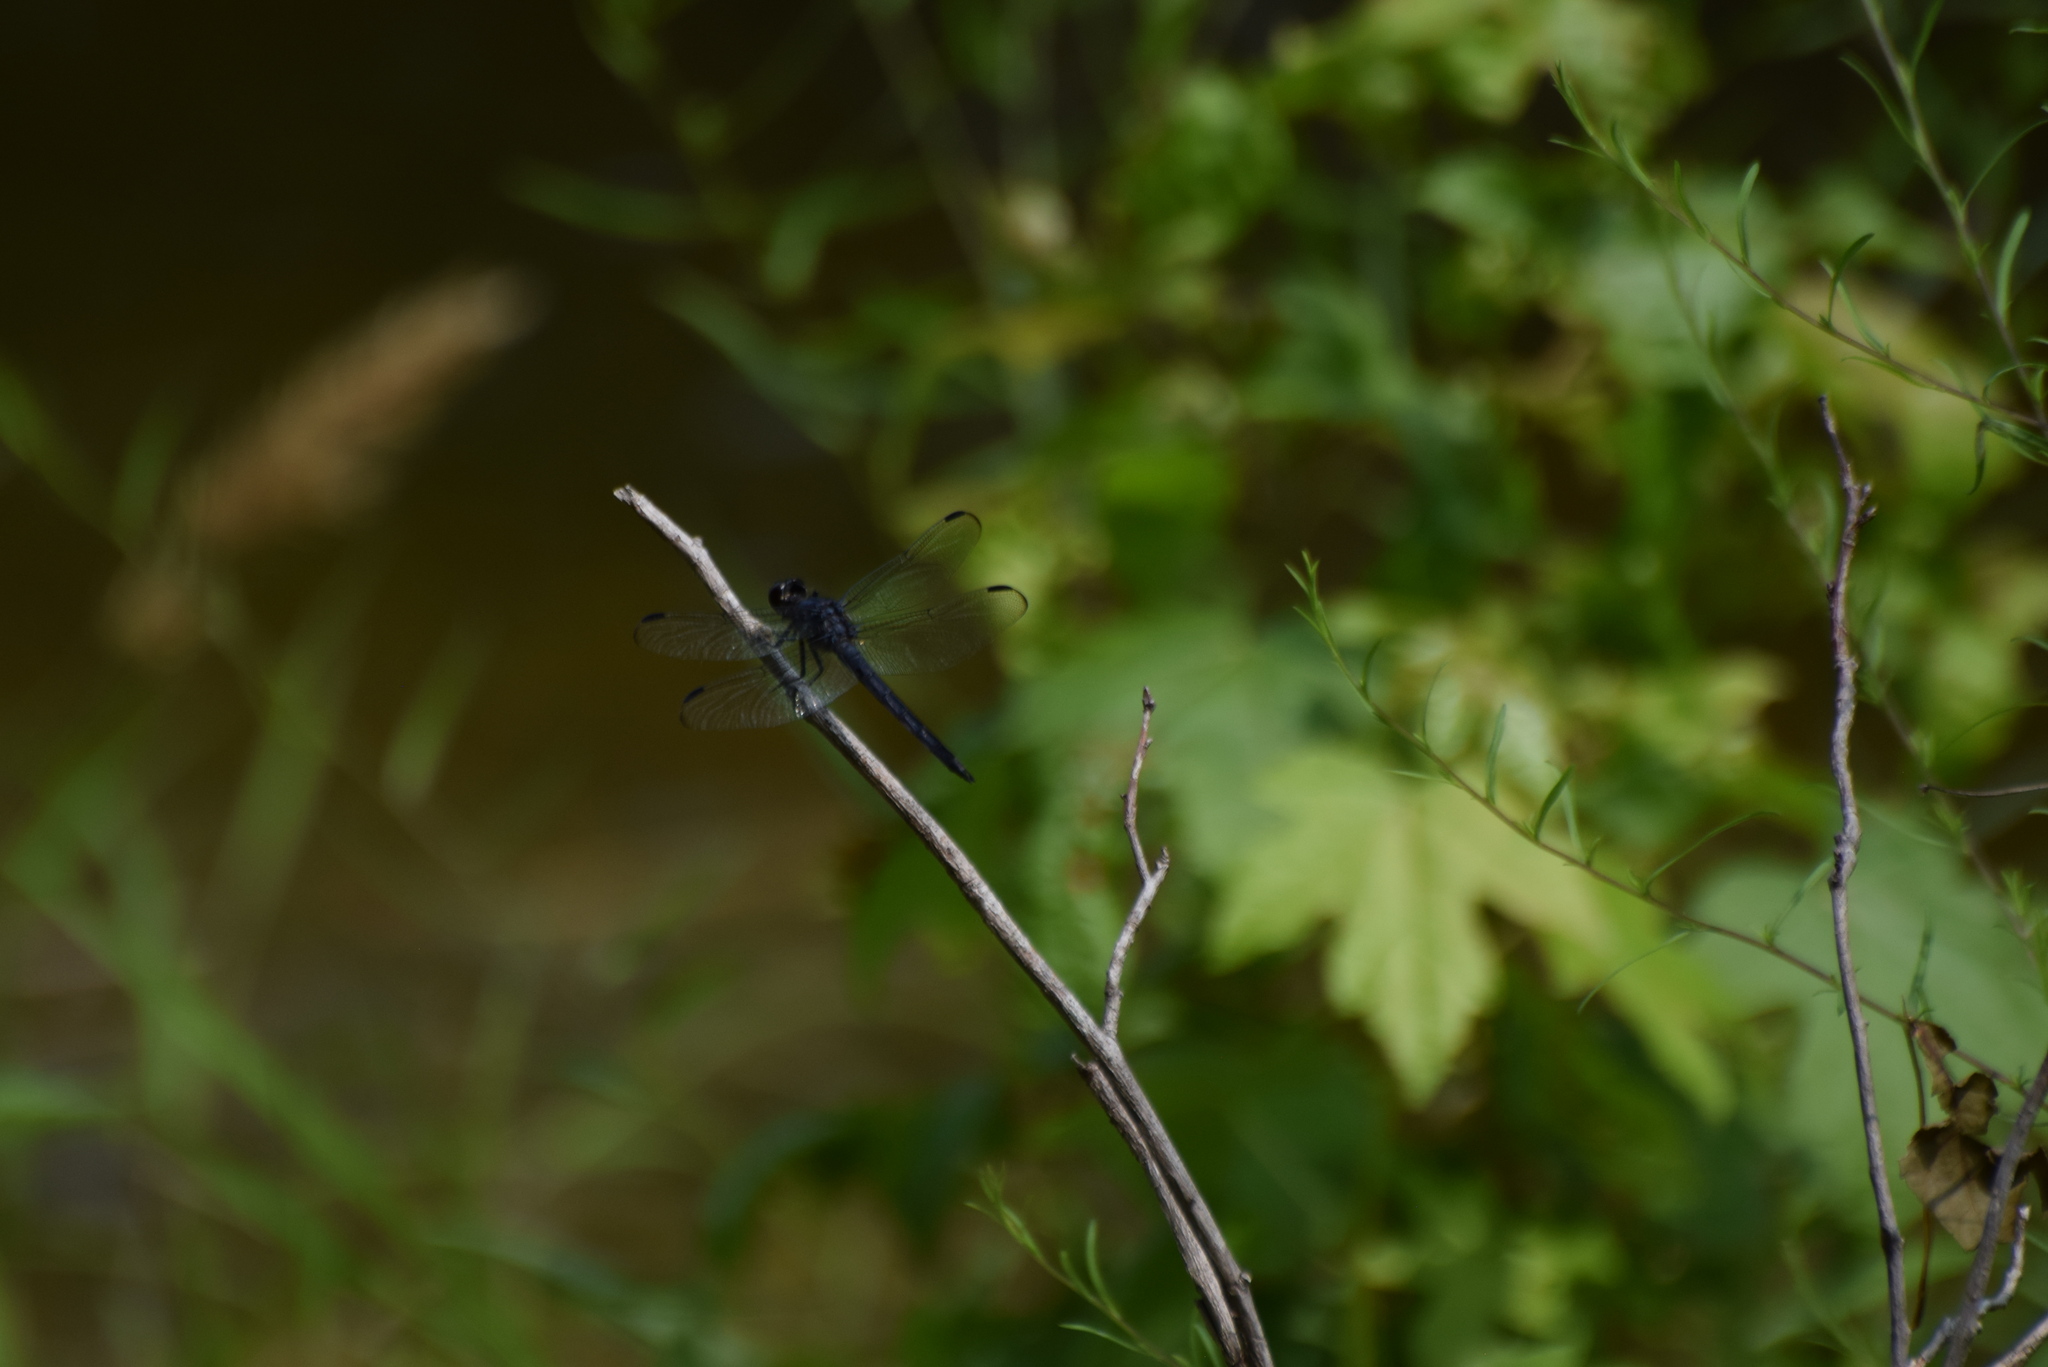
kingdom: Animalia
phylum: Arthropoda
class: Insecta
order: Odonata
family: Libellulidae
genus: Libellula
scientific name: Libellula incesta
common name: Slaty skimmer
